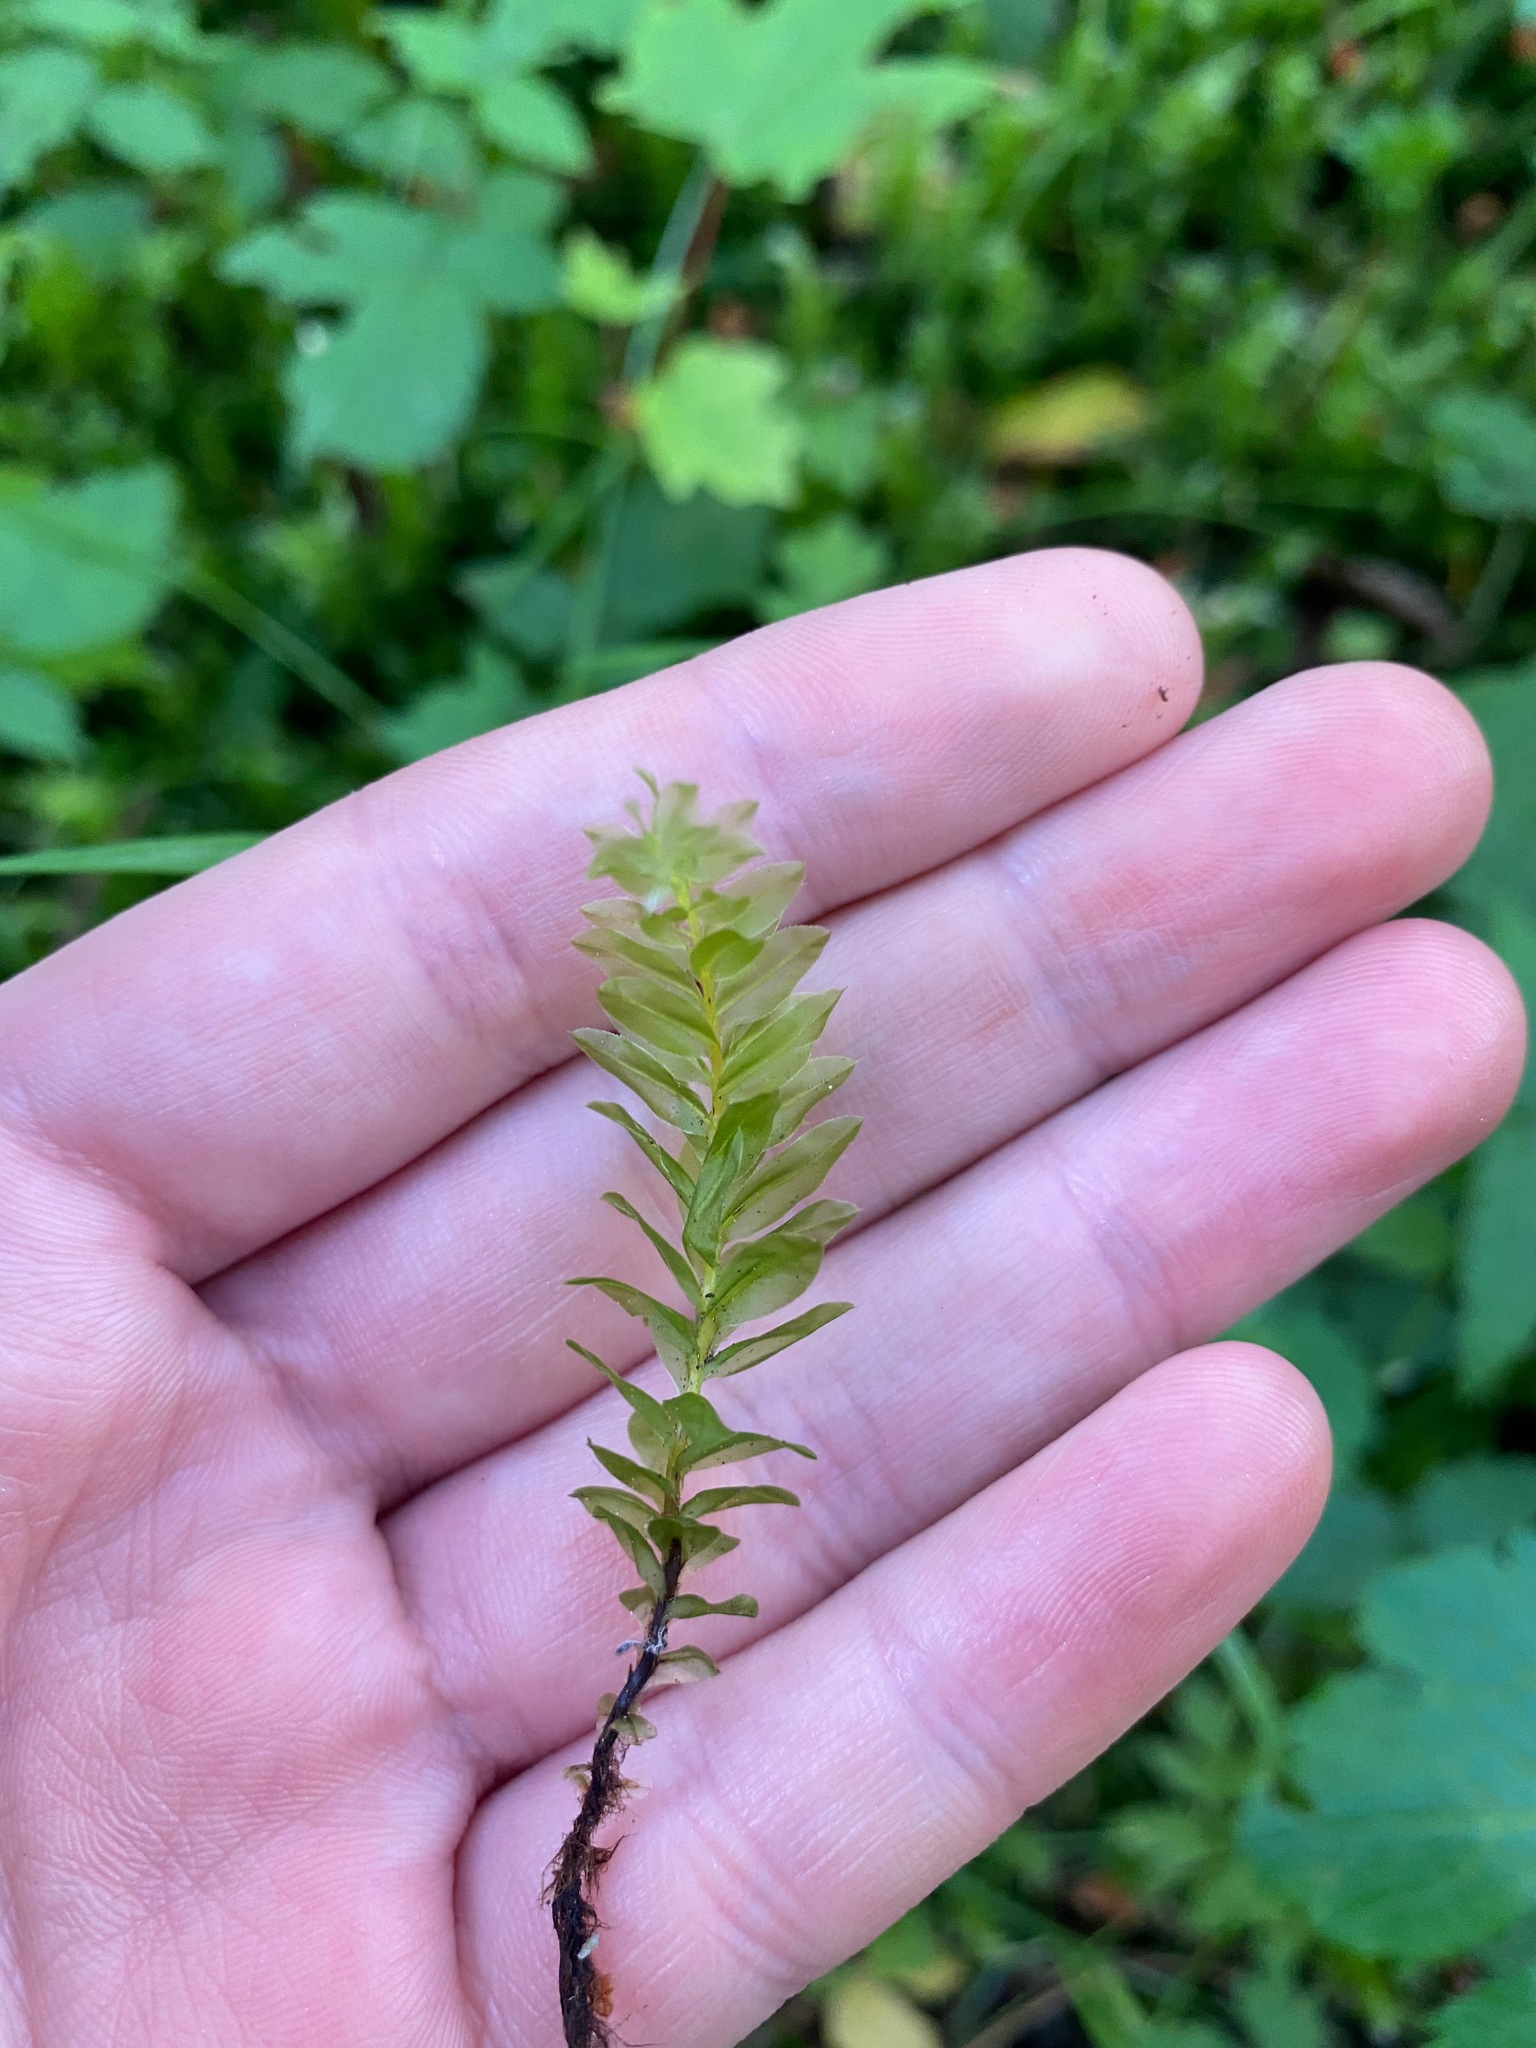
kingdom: Plantae
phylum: Bryophyta
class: Bryopsida
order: Bryales
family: Mniaceae
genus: Plagiomnium
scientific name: Plagiomnium insigne
